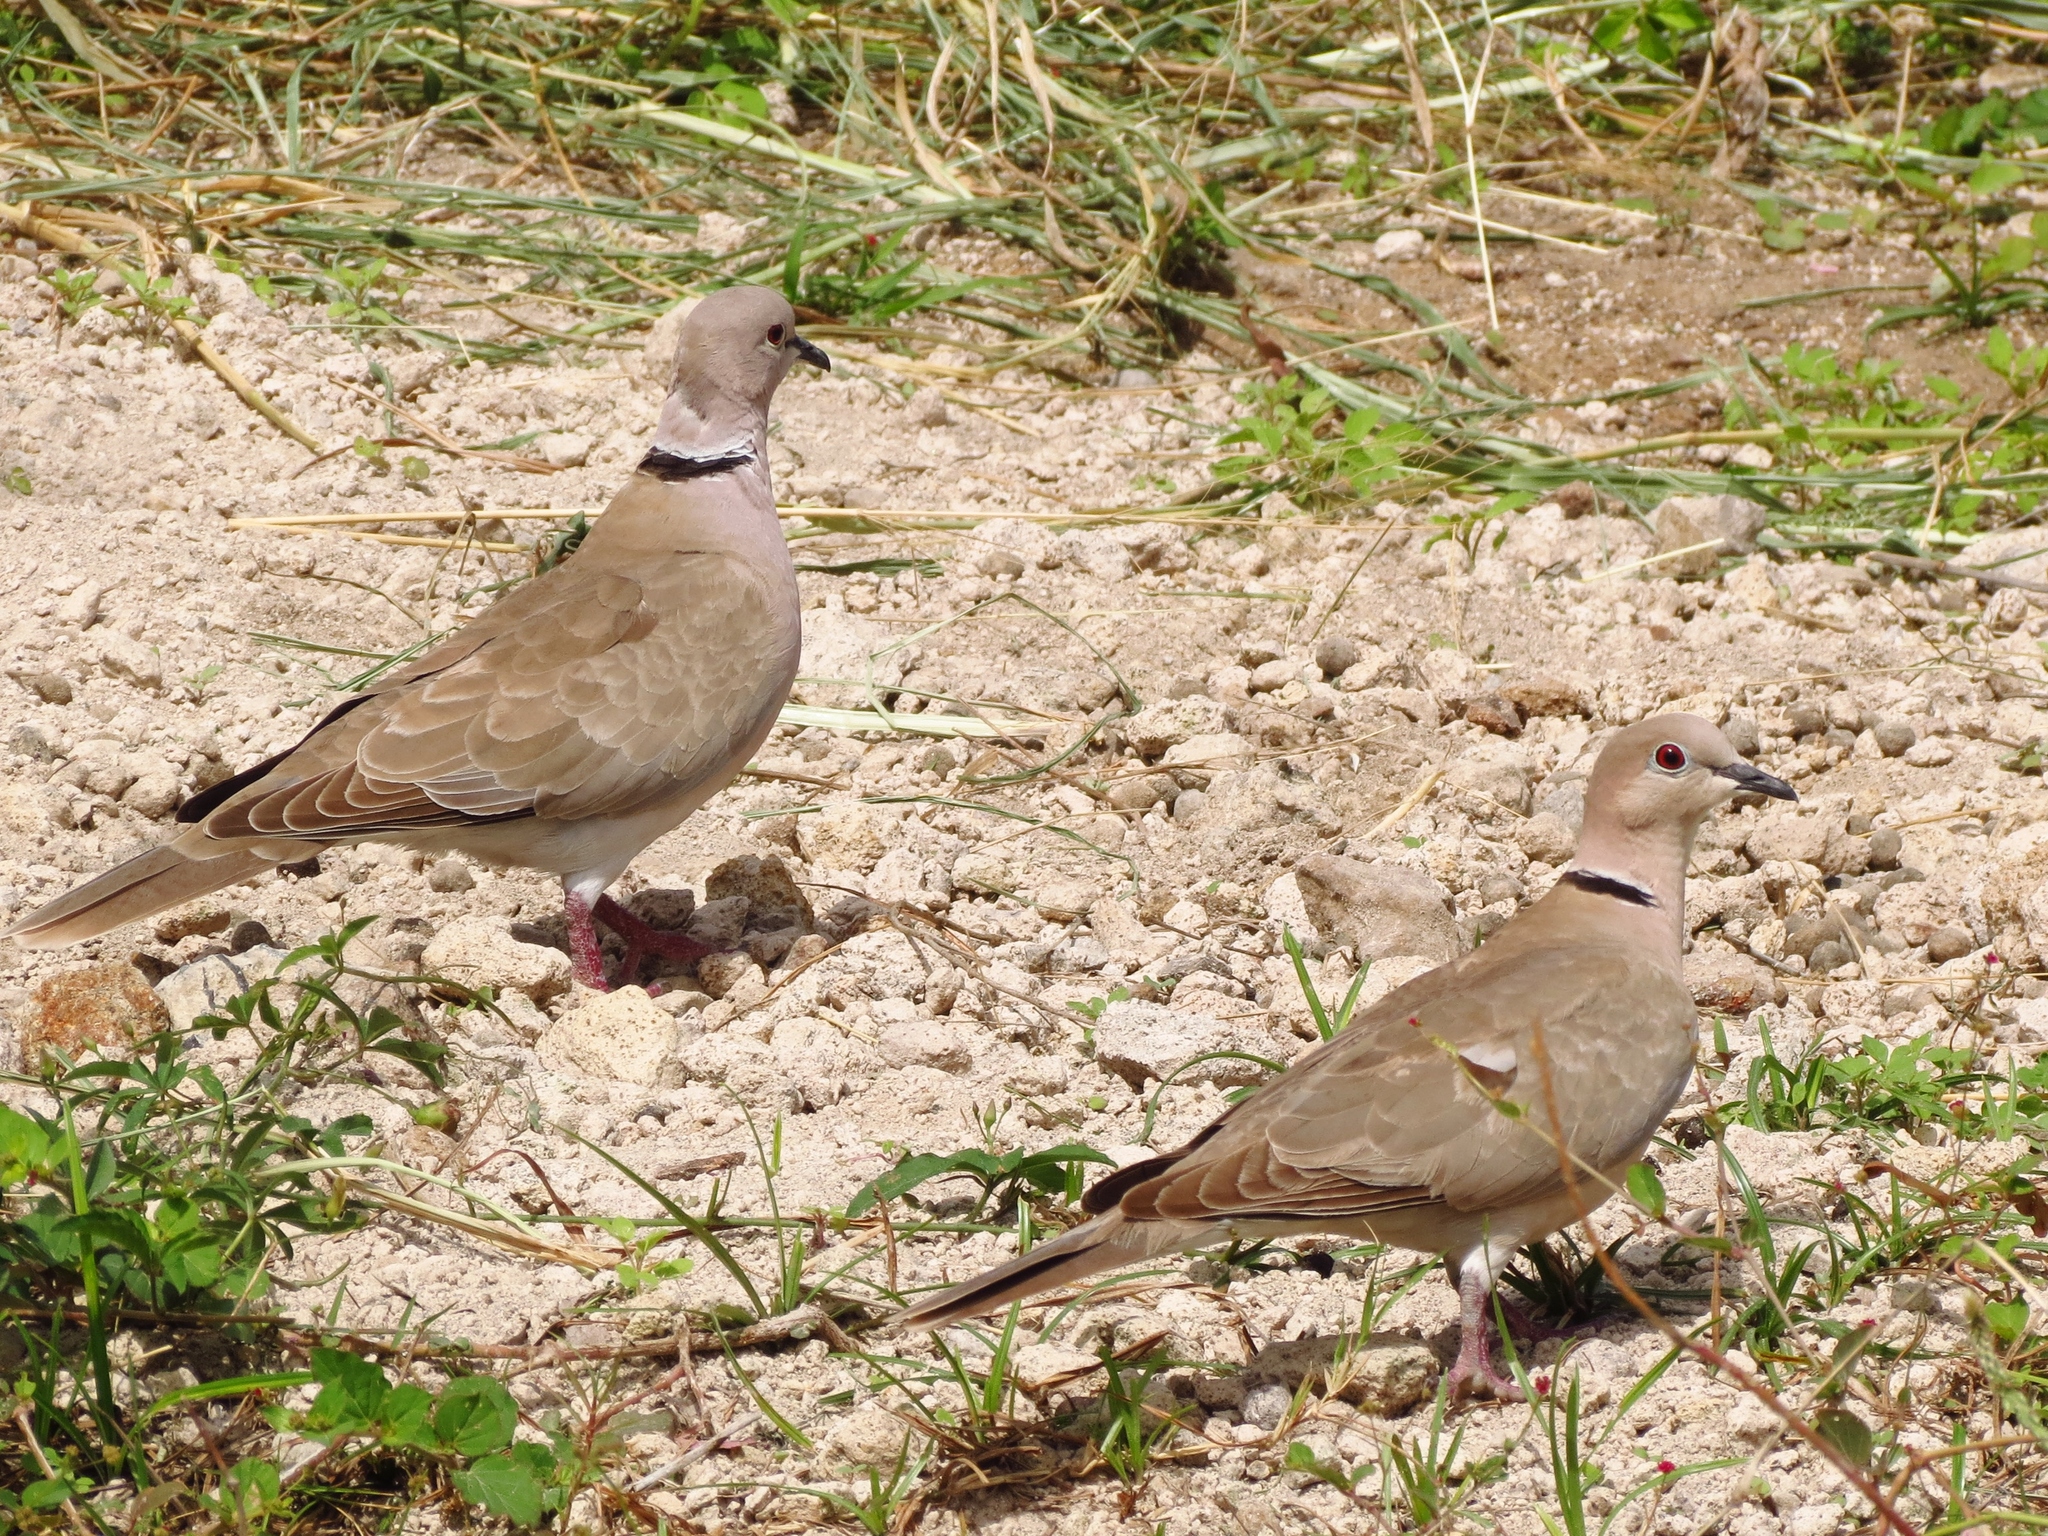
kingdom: Animalia
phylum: Chordata
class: Aves
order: Columbiformes
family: Columbidae
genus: Streptopelia
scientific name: Streptopelia decaocto
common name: Eurasian collared dove
